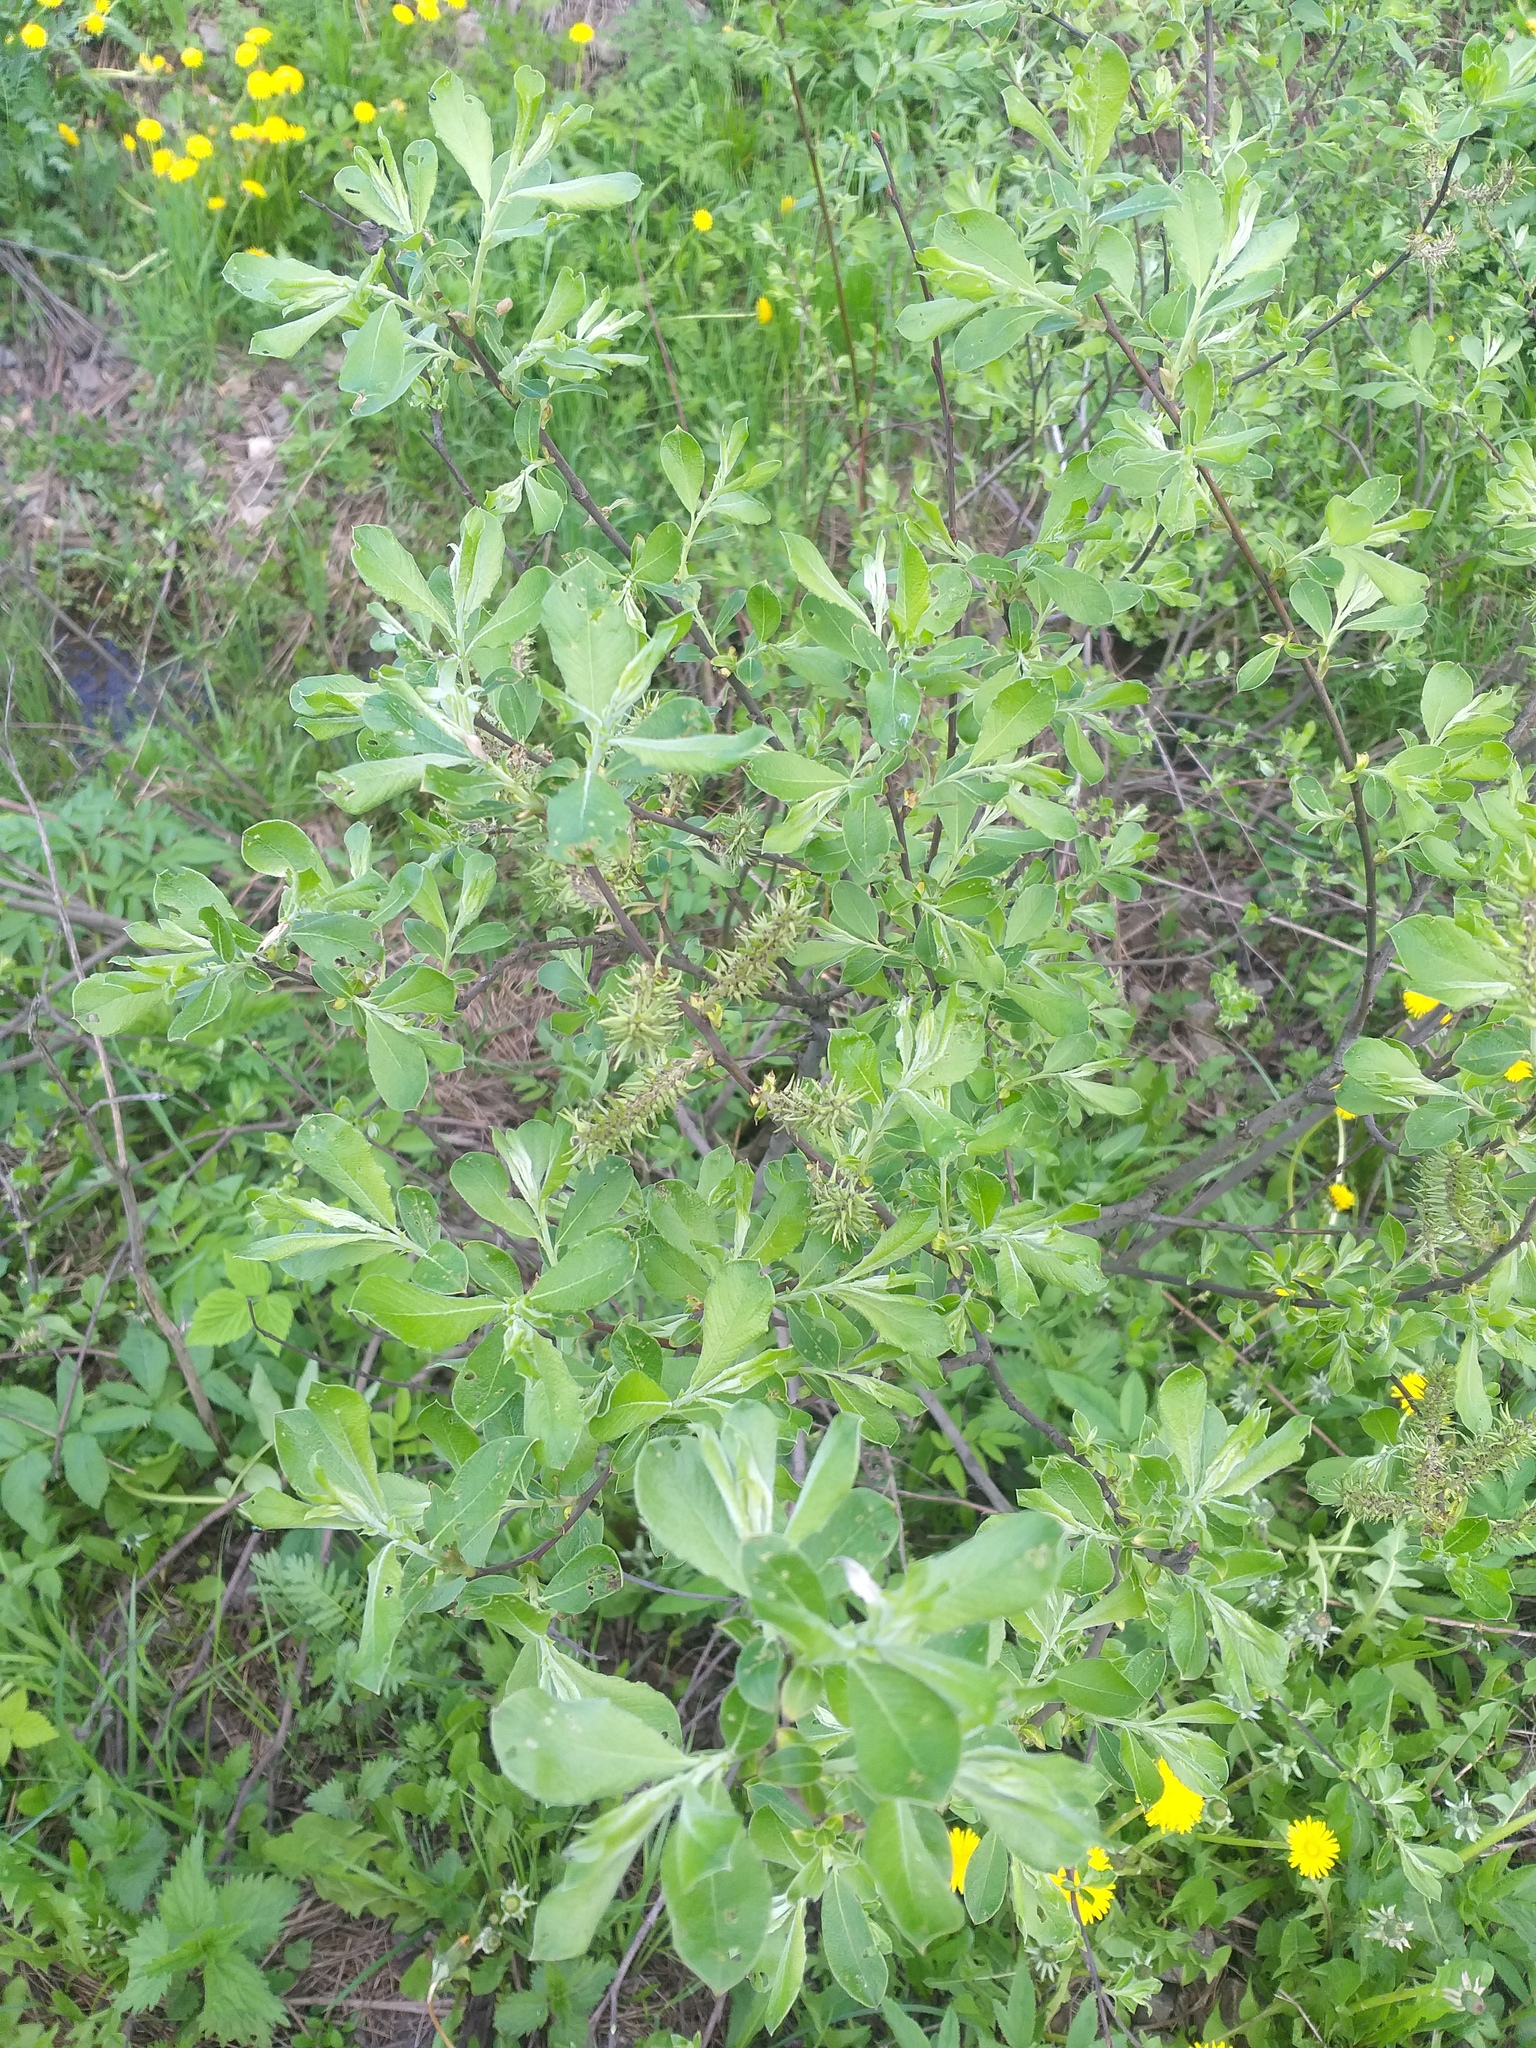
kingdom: Plantae
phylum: Tracheophyta
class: Magnoliopsida
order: Malpighiales
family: Salicaceae
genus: Salix
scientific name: Salix cinerea
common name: Common sallow
